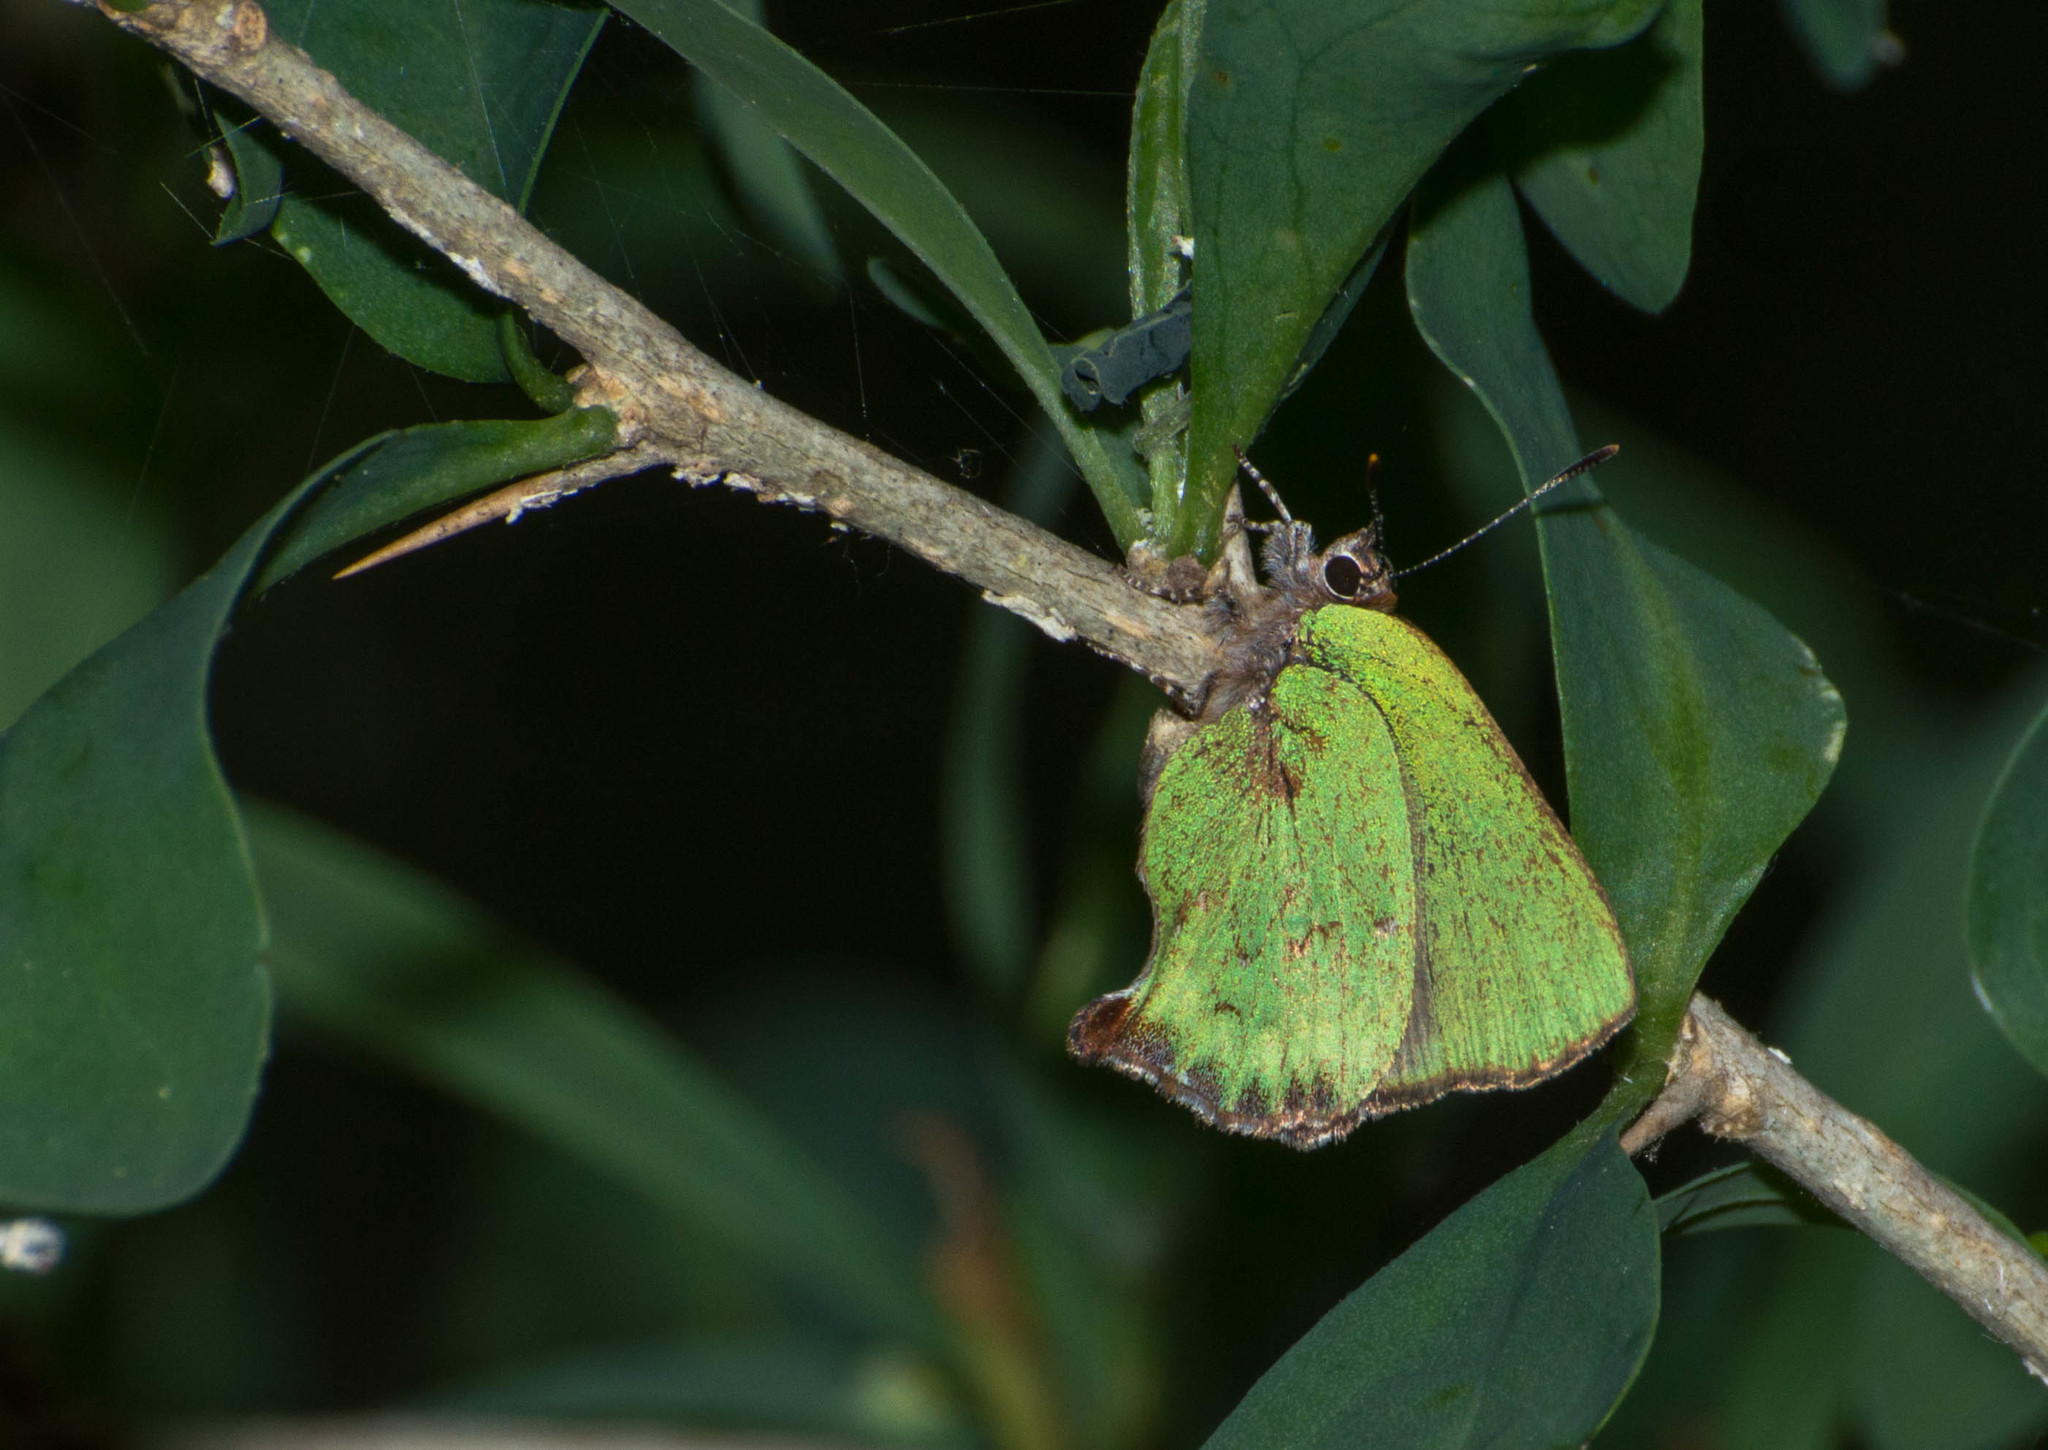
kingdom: Animalia
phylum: Arthropoda
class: Insecta
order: Lepidoptera
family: Lycaenidae
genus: Cyanophrys
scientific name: Cyanophrys
